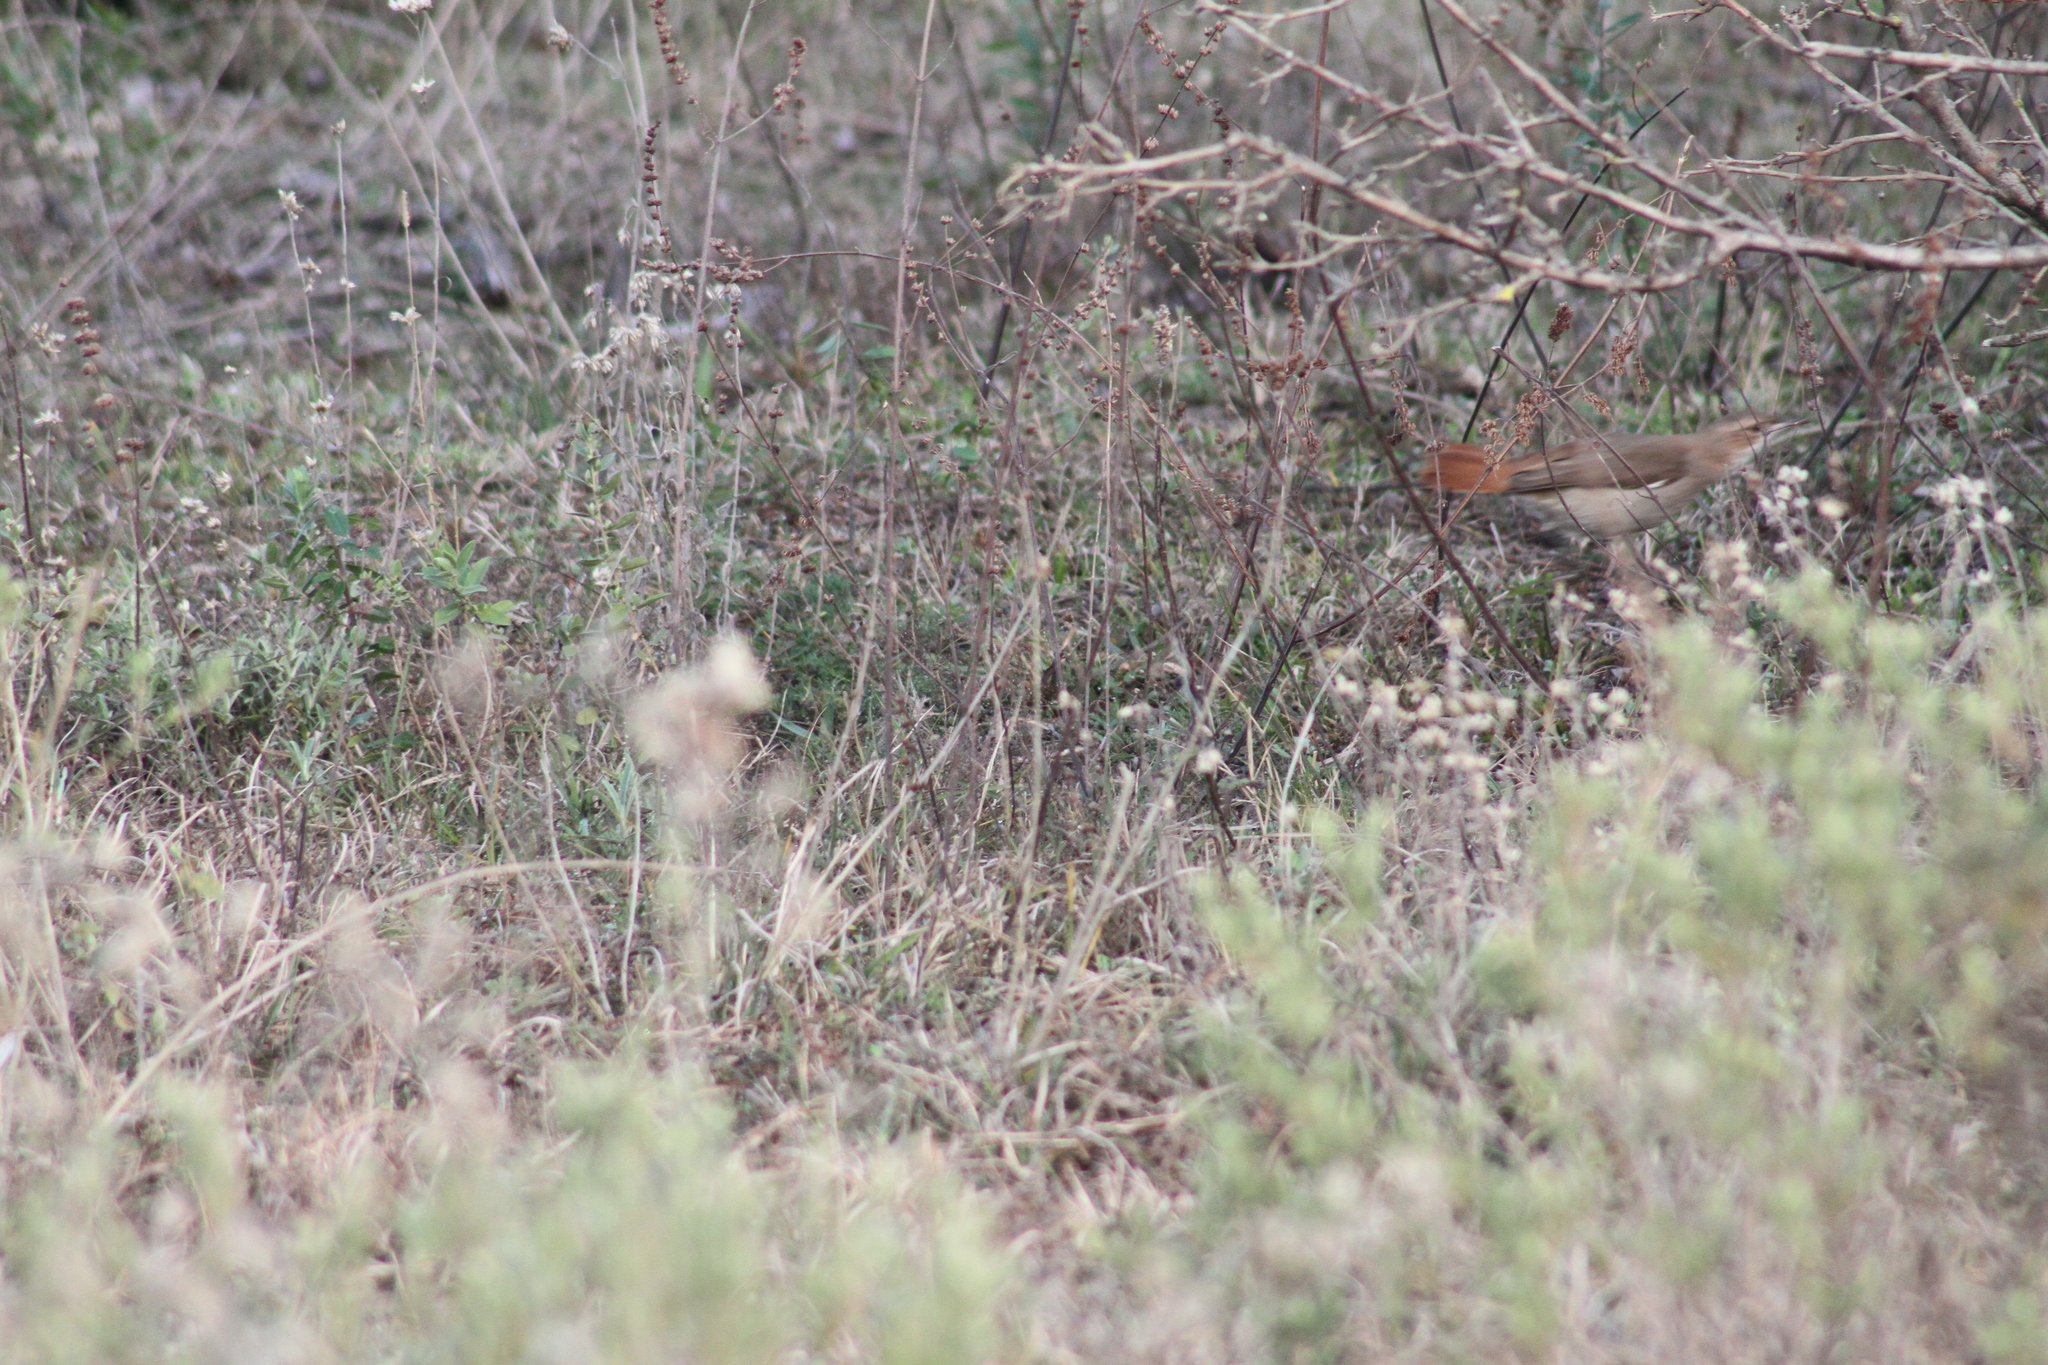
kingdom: Animalia
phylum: Chordata
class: Aves
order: Passeriformes
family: Furnariidae
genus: Furnarius
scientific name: Furnarius rufus
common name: Rufous hornero
